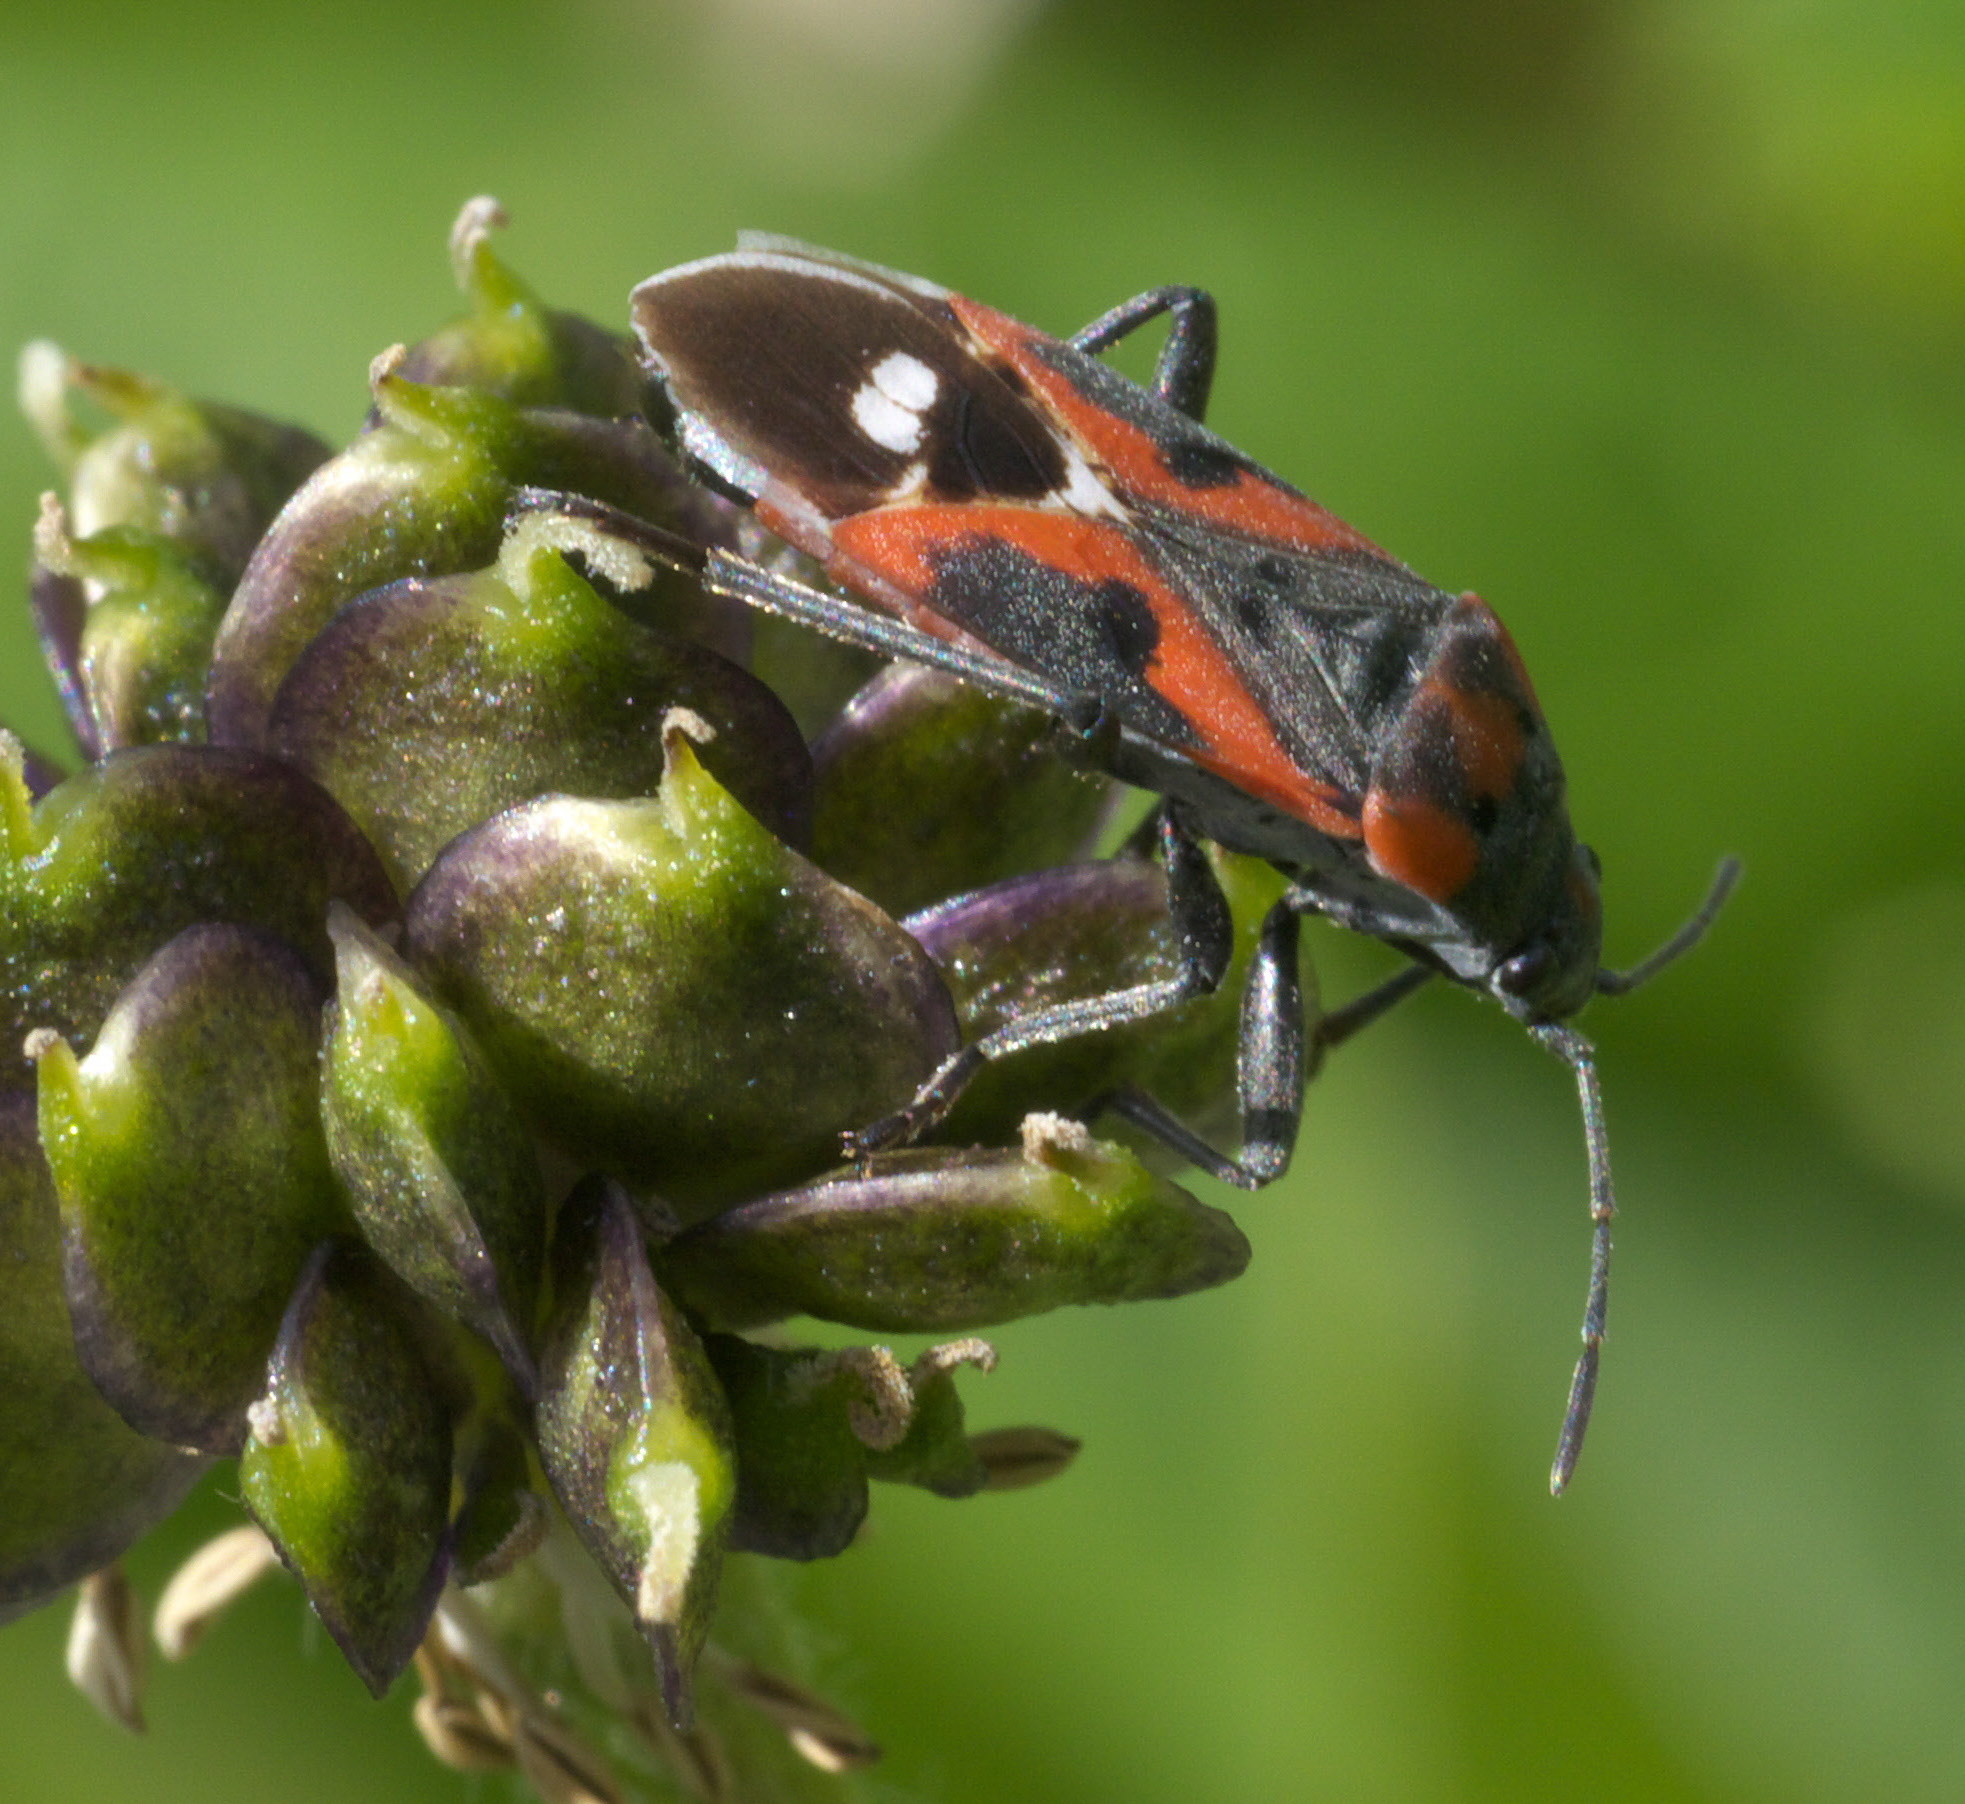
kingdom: Animalia
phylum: Arthropoda
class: Insecta
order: Hemiptera
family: Lygaeidae
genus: Lygaeus
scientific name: Lygaeus kalmii
